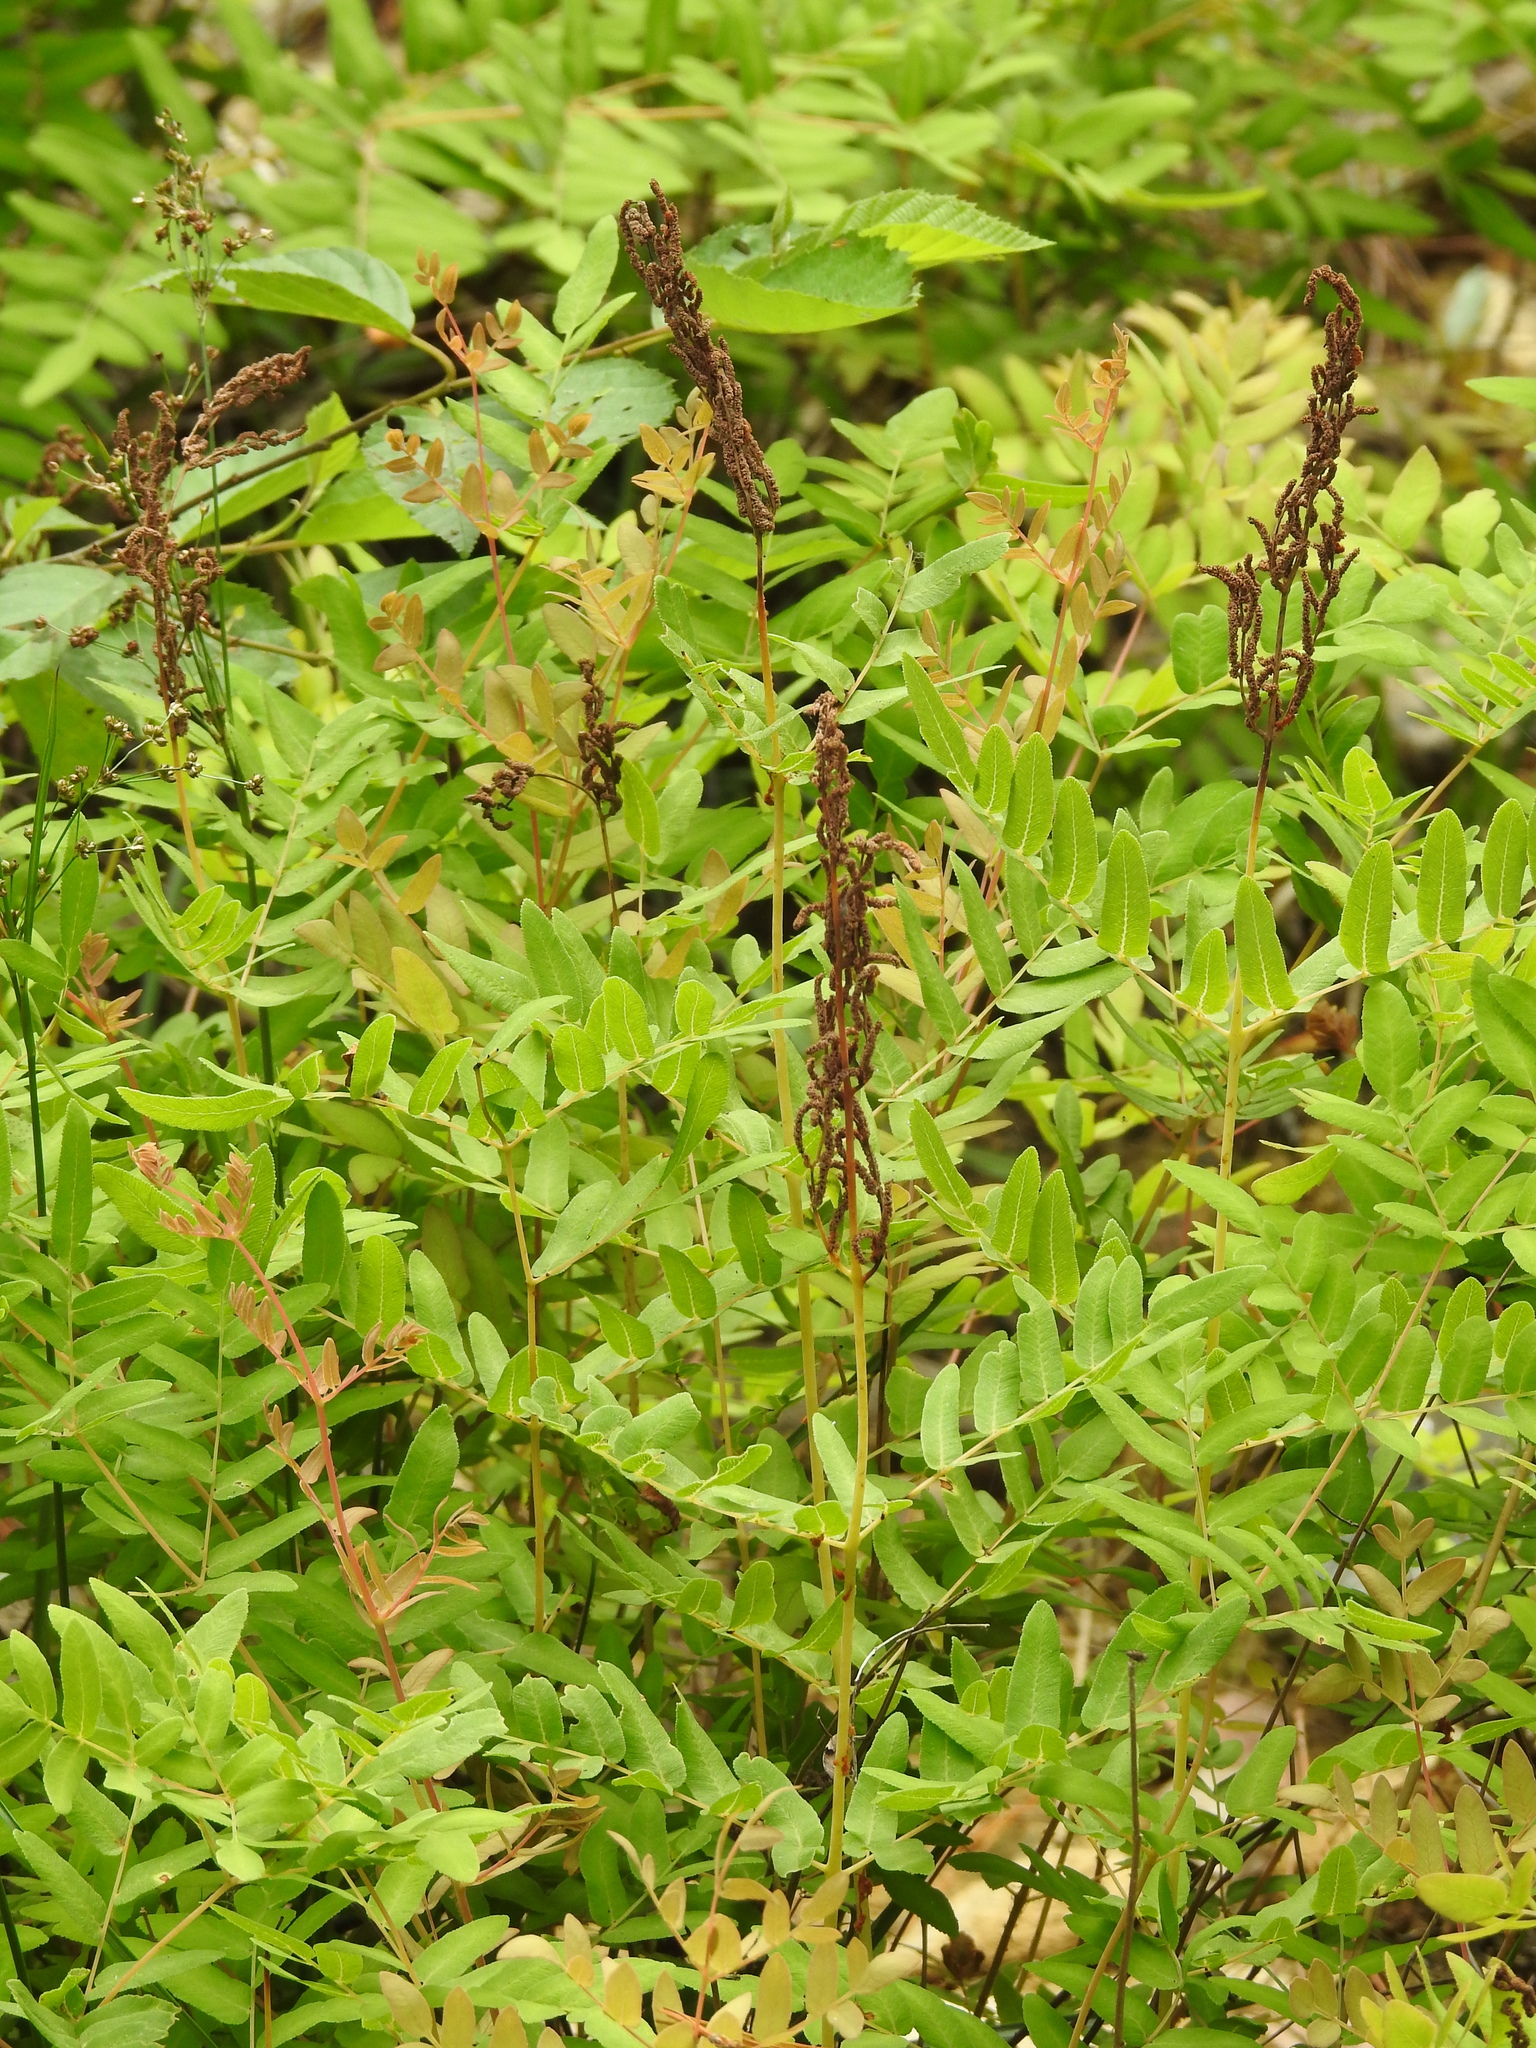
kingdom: Plantae
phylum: Tracheophyta
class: Polypodiopsida
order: Osmundales
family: Osmundaceae
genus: Osmunda
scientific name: Osmunda spectabilis
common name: American royal fern
